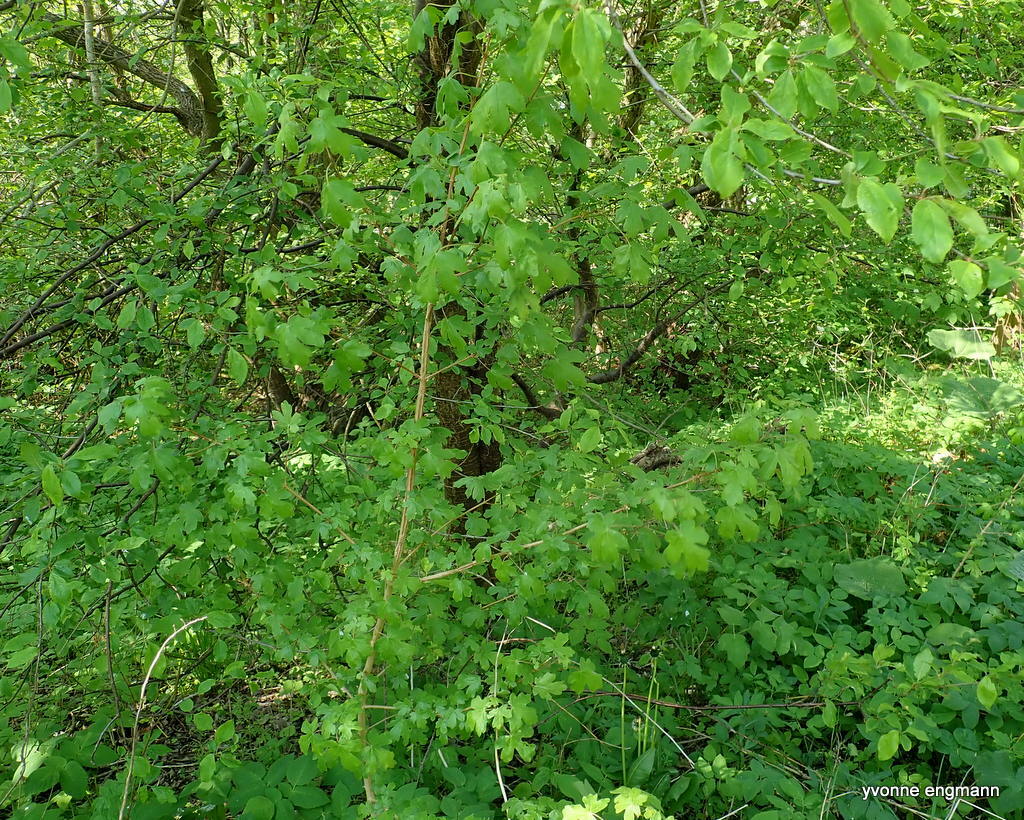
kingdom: Plantae
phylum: Tracheophyta
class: Magnoliopsida
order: Sapindales
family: Sapindaceae
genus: Acer
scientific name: Acer campestre
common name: Field maple
